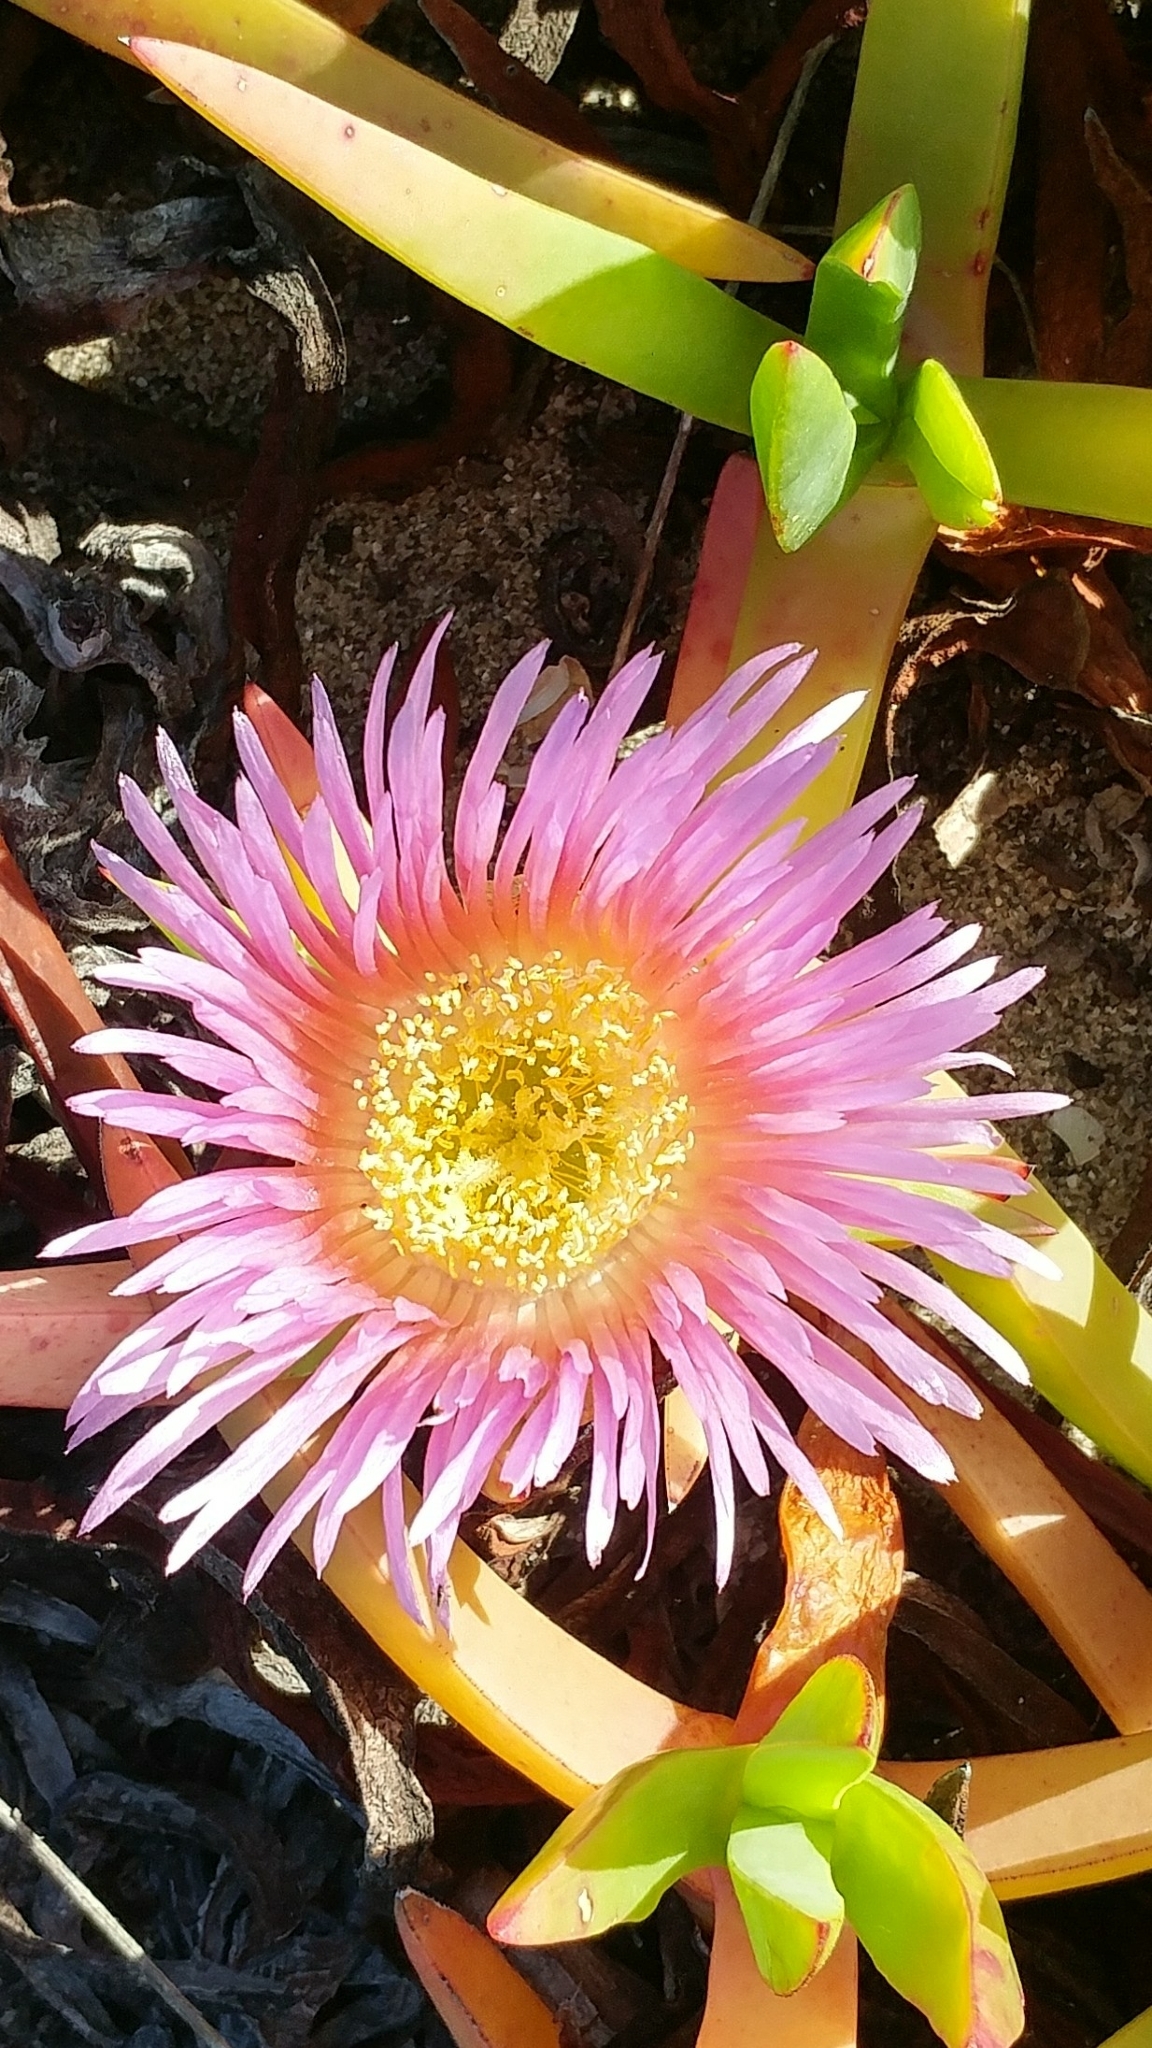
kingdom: Plantae
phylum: Tracheophyta
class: Magnoliopsida
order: Caryophyllales
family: Aizoaceae
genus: Carpobrotus
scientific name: Carpobrotus chilensis
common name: Sea fig
